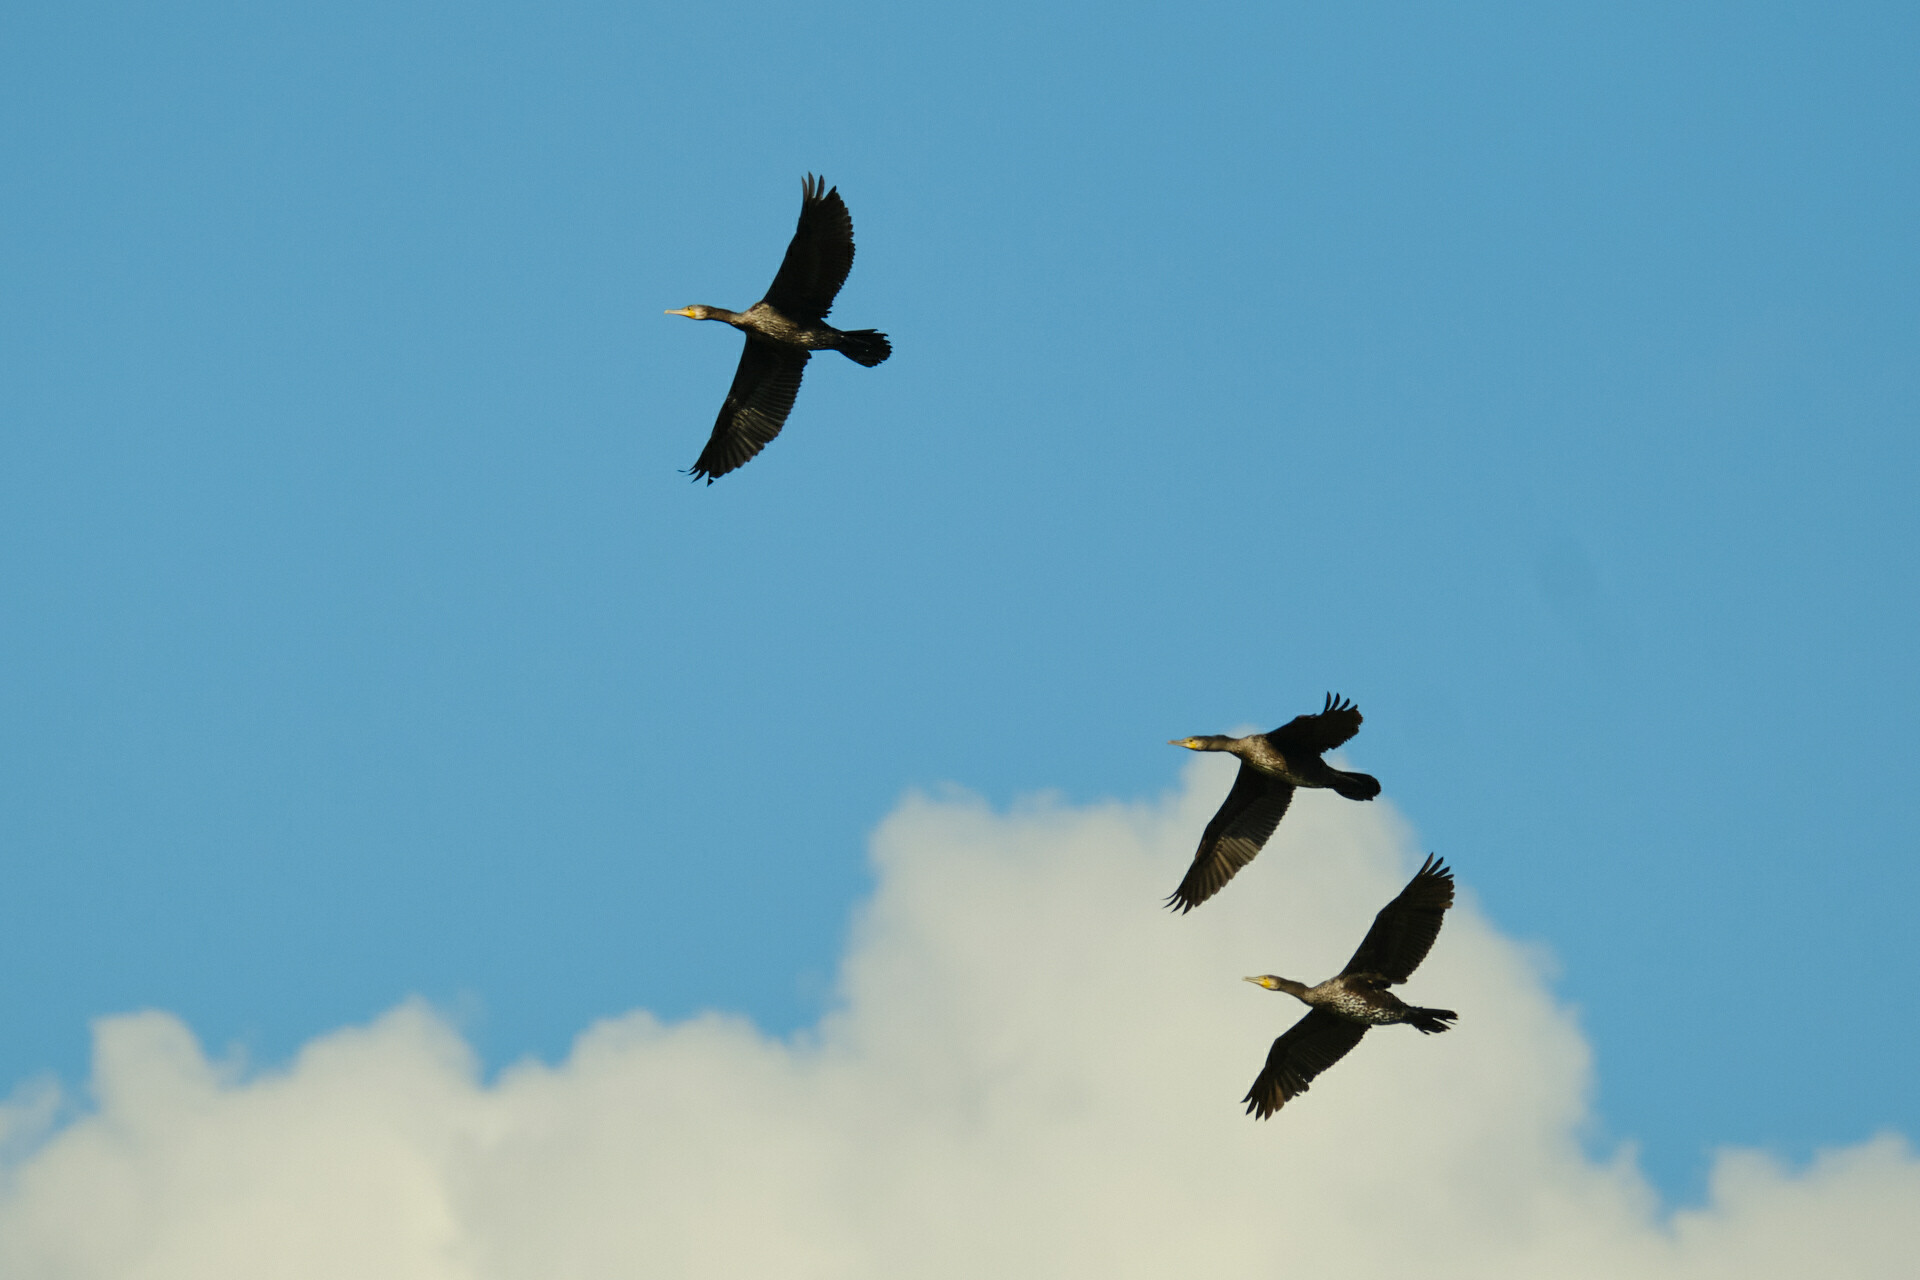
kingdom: Animalia
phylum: Chordata
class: Aves
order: Suliformes
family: Phalacrocoracidae
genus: Phalacrocorax
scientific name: Phalacrocorax carbo
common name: Great cormorant
